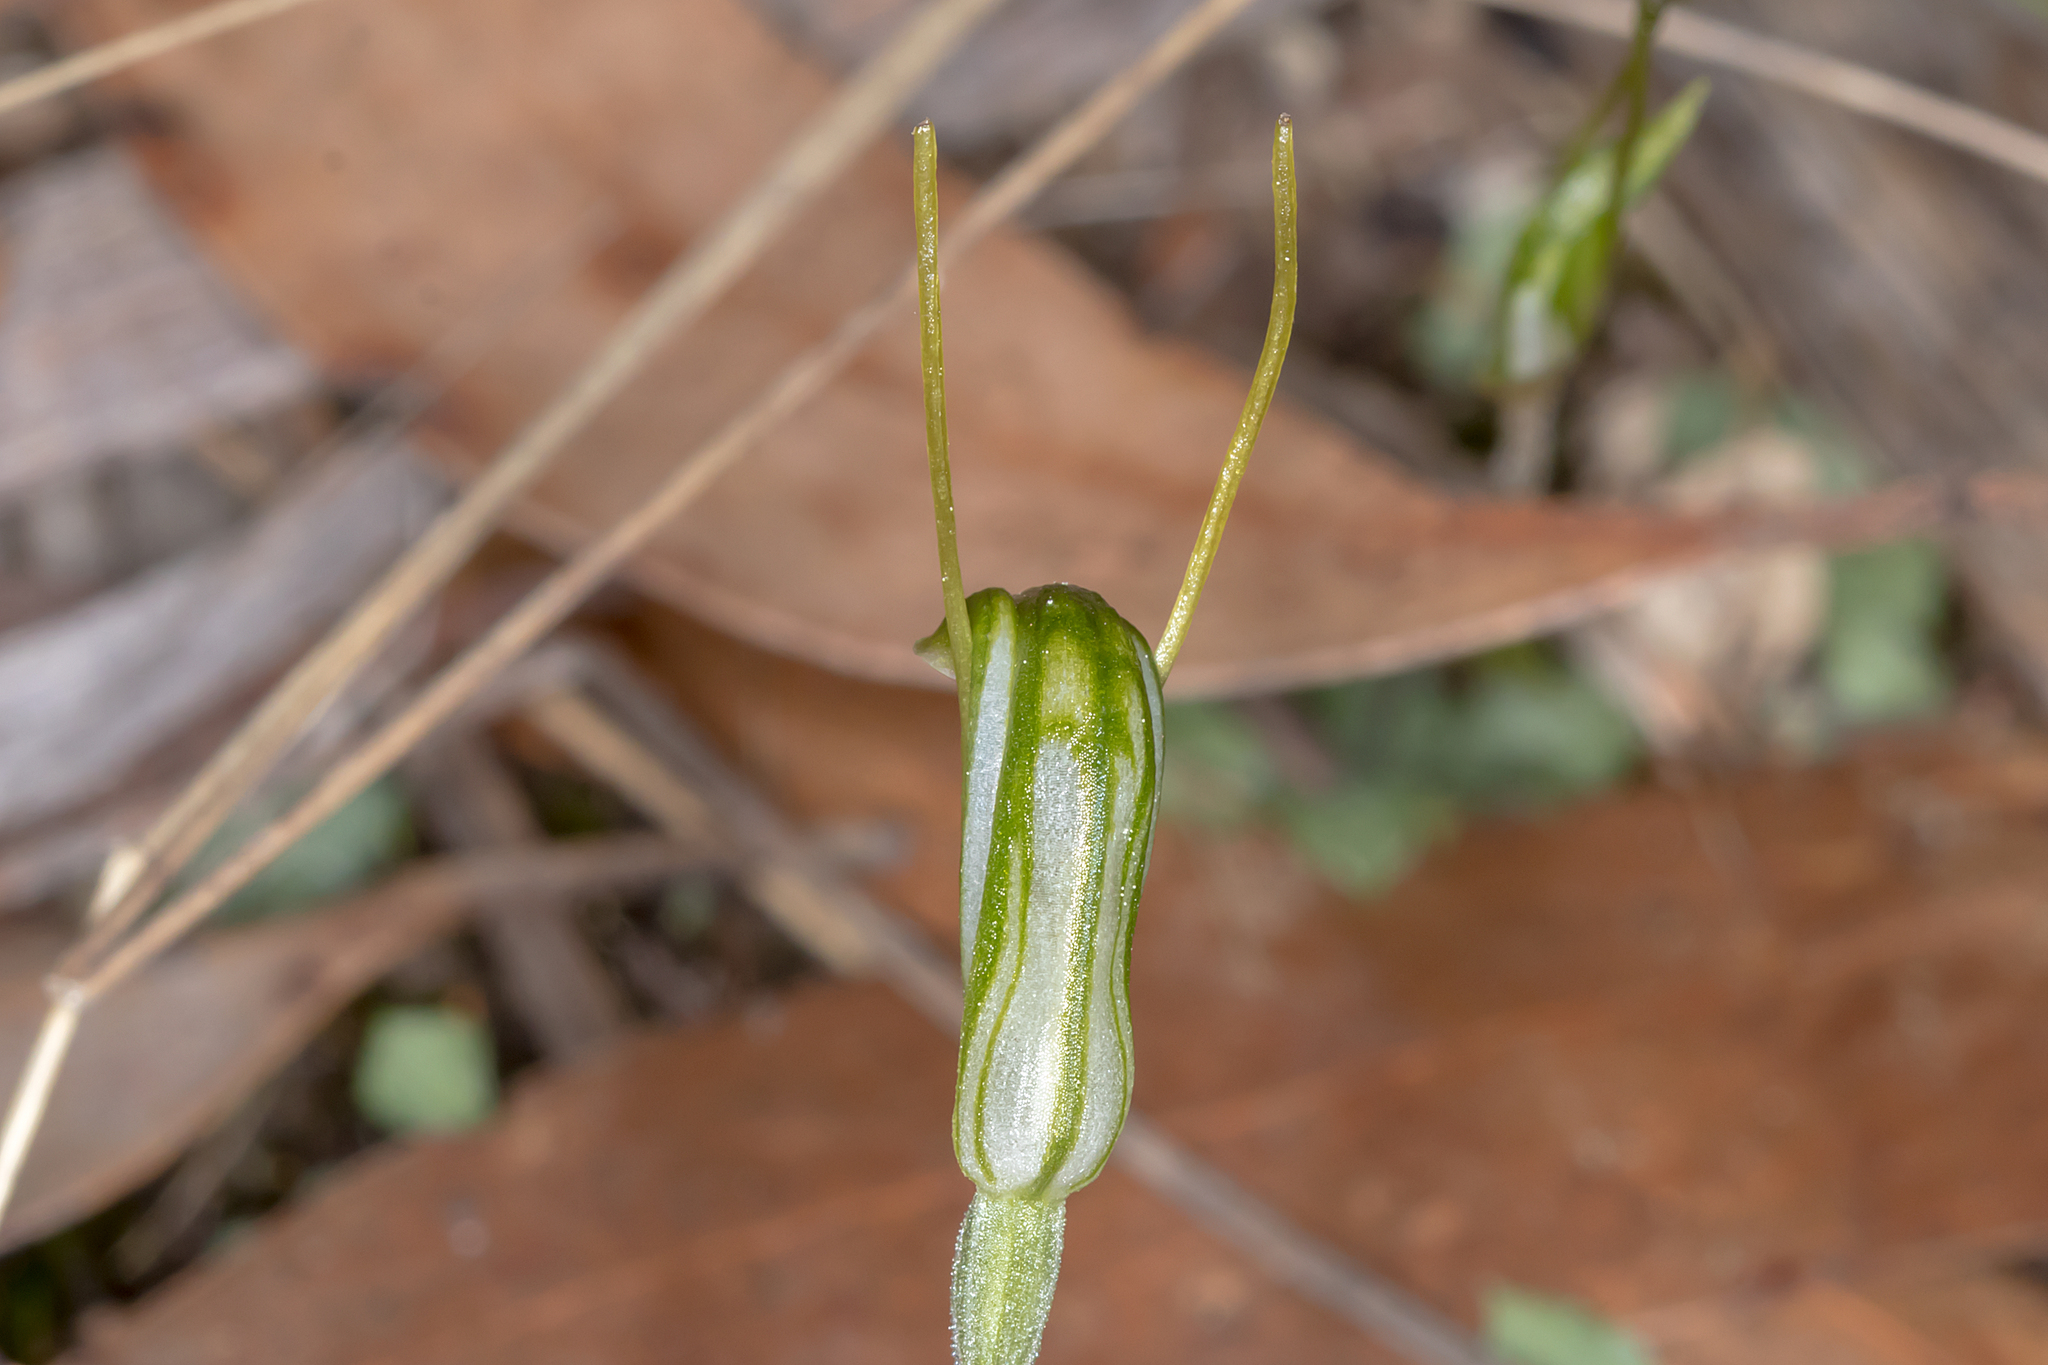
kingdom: Plantae
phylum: Tracheophyta
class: Liliopsida
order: Asparagales
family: Orchidaceae
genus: Pterostylis
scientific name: Pterostylis nana
